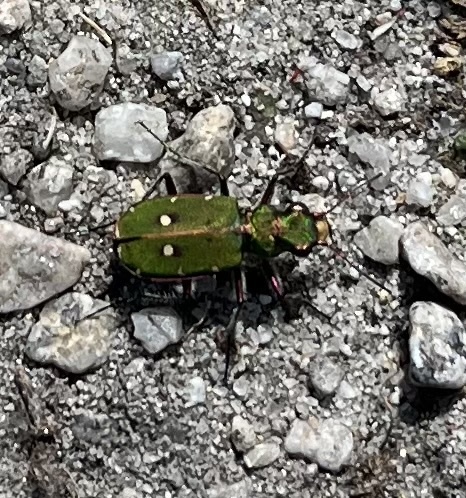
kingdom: Animalia
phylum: Arthropoda
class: Insecta
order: Coleoptera
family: Carabidae
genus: Cicindela
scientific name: Cicindela campestris
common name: Common tiger beetle
